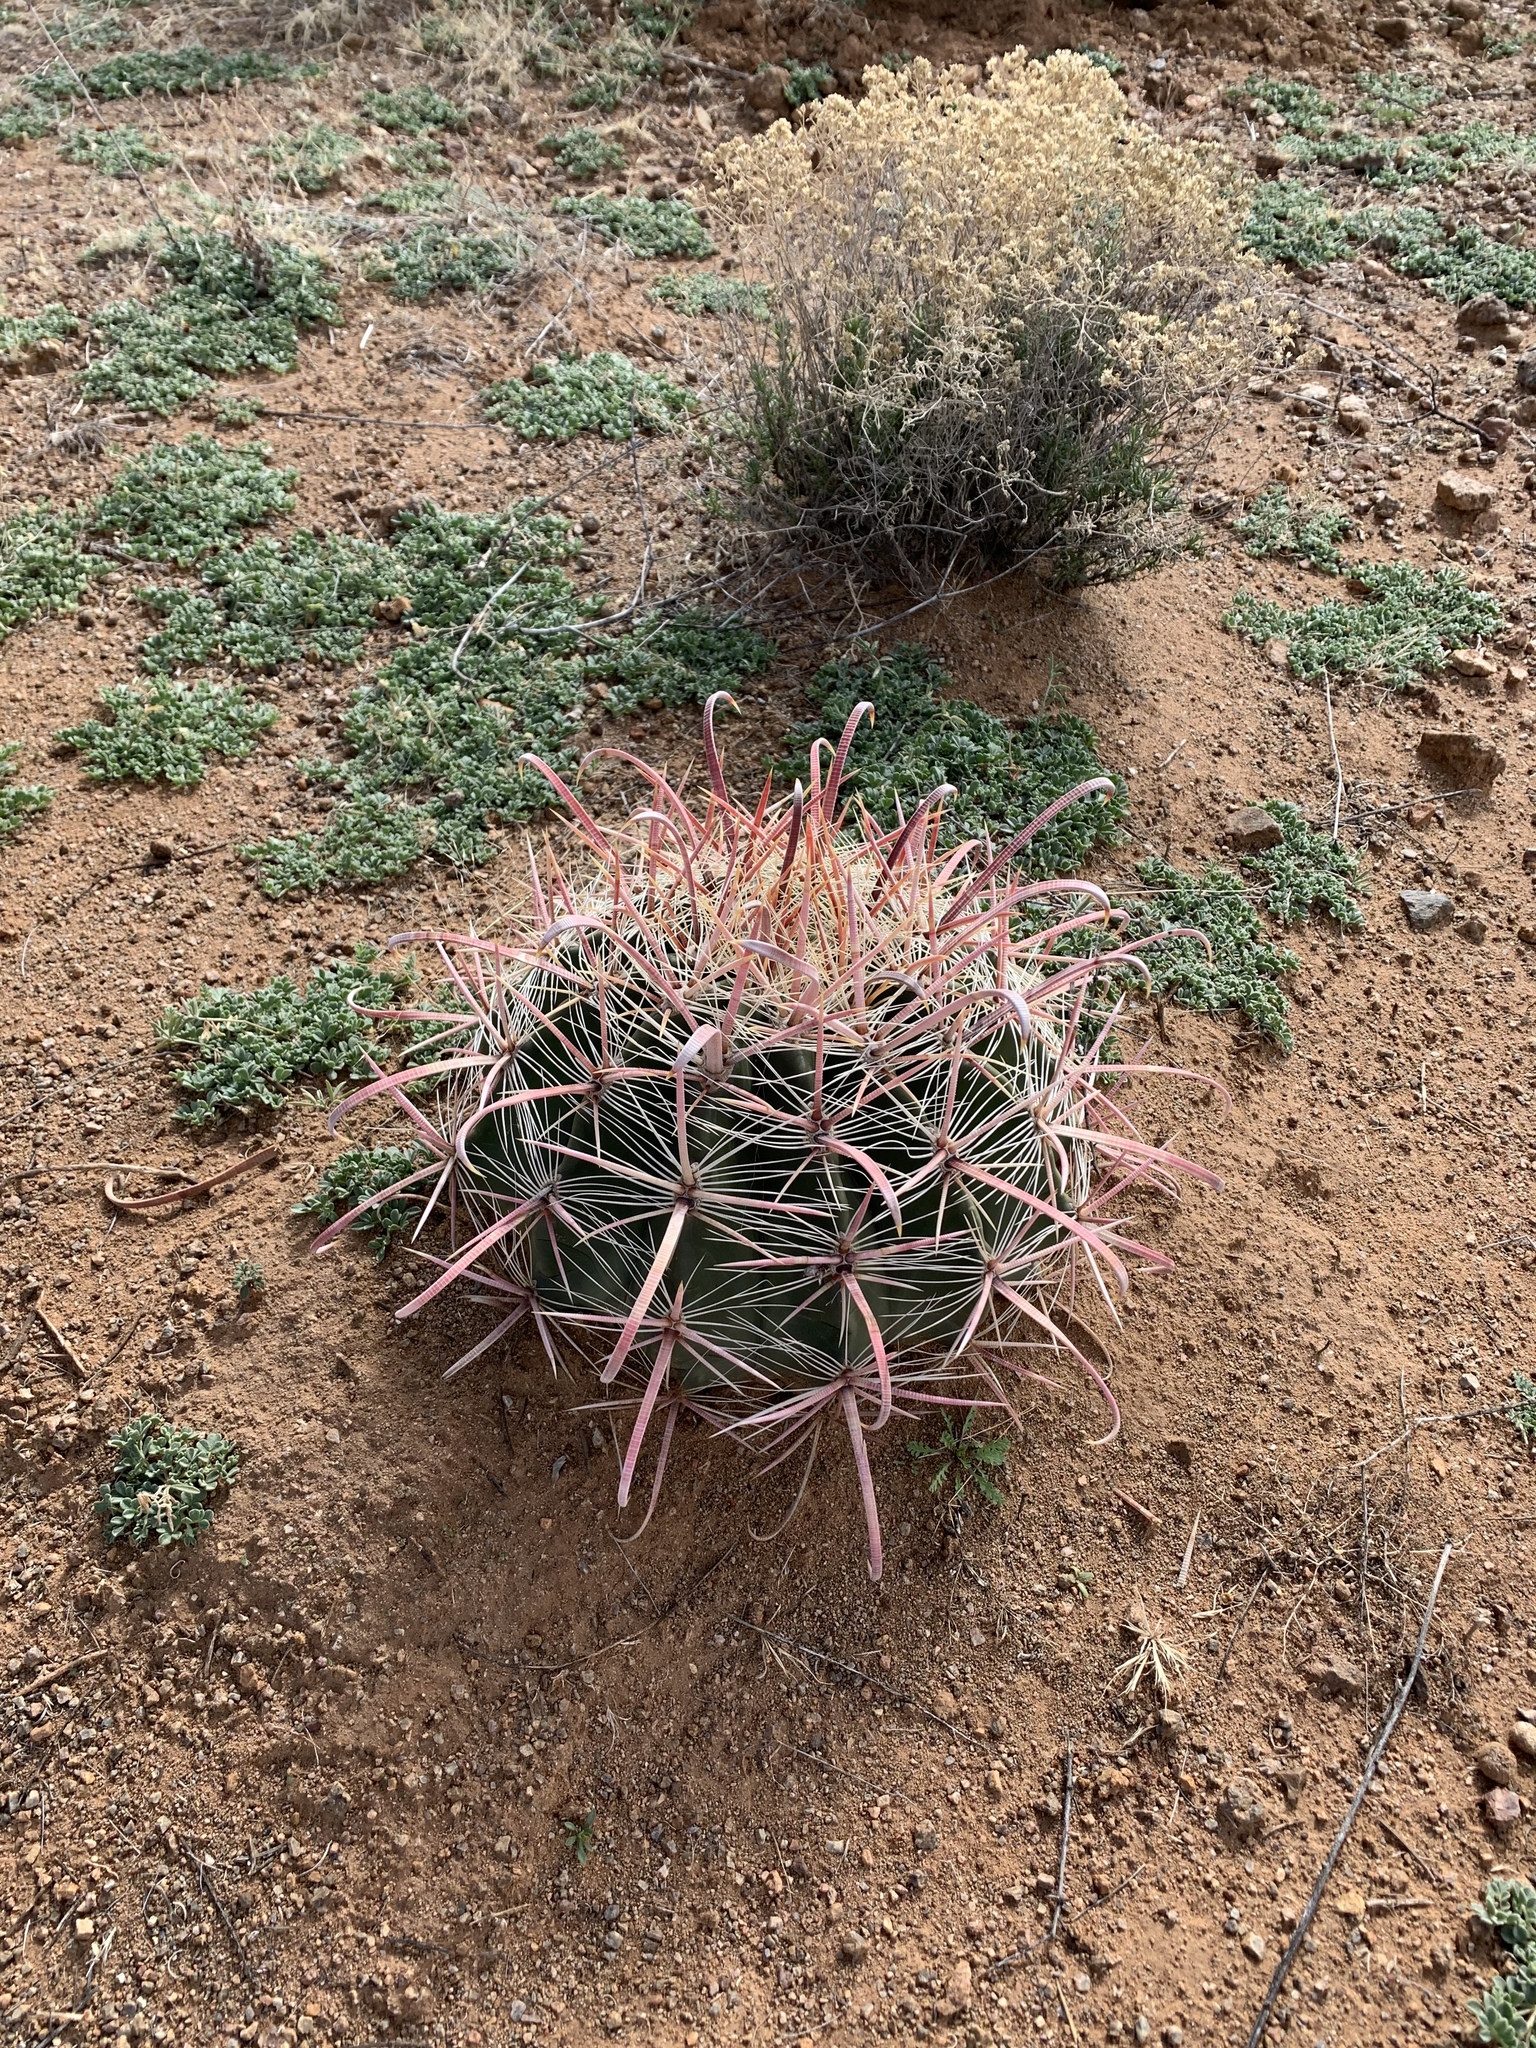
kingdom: Plantae
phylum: Tracheophyta
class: Magnoliopsida
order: Caryophyllales
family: Cactaceae
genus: Ferocactus
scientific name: Ferocactus wislizeni
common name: Candy barrel cactus
